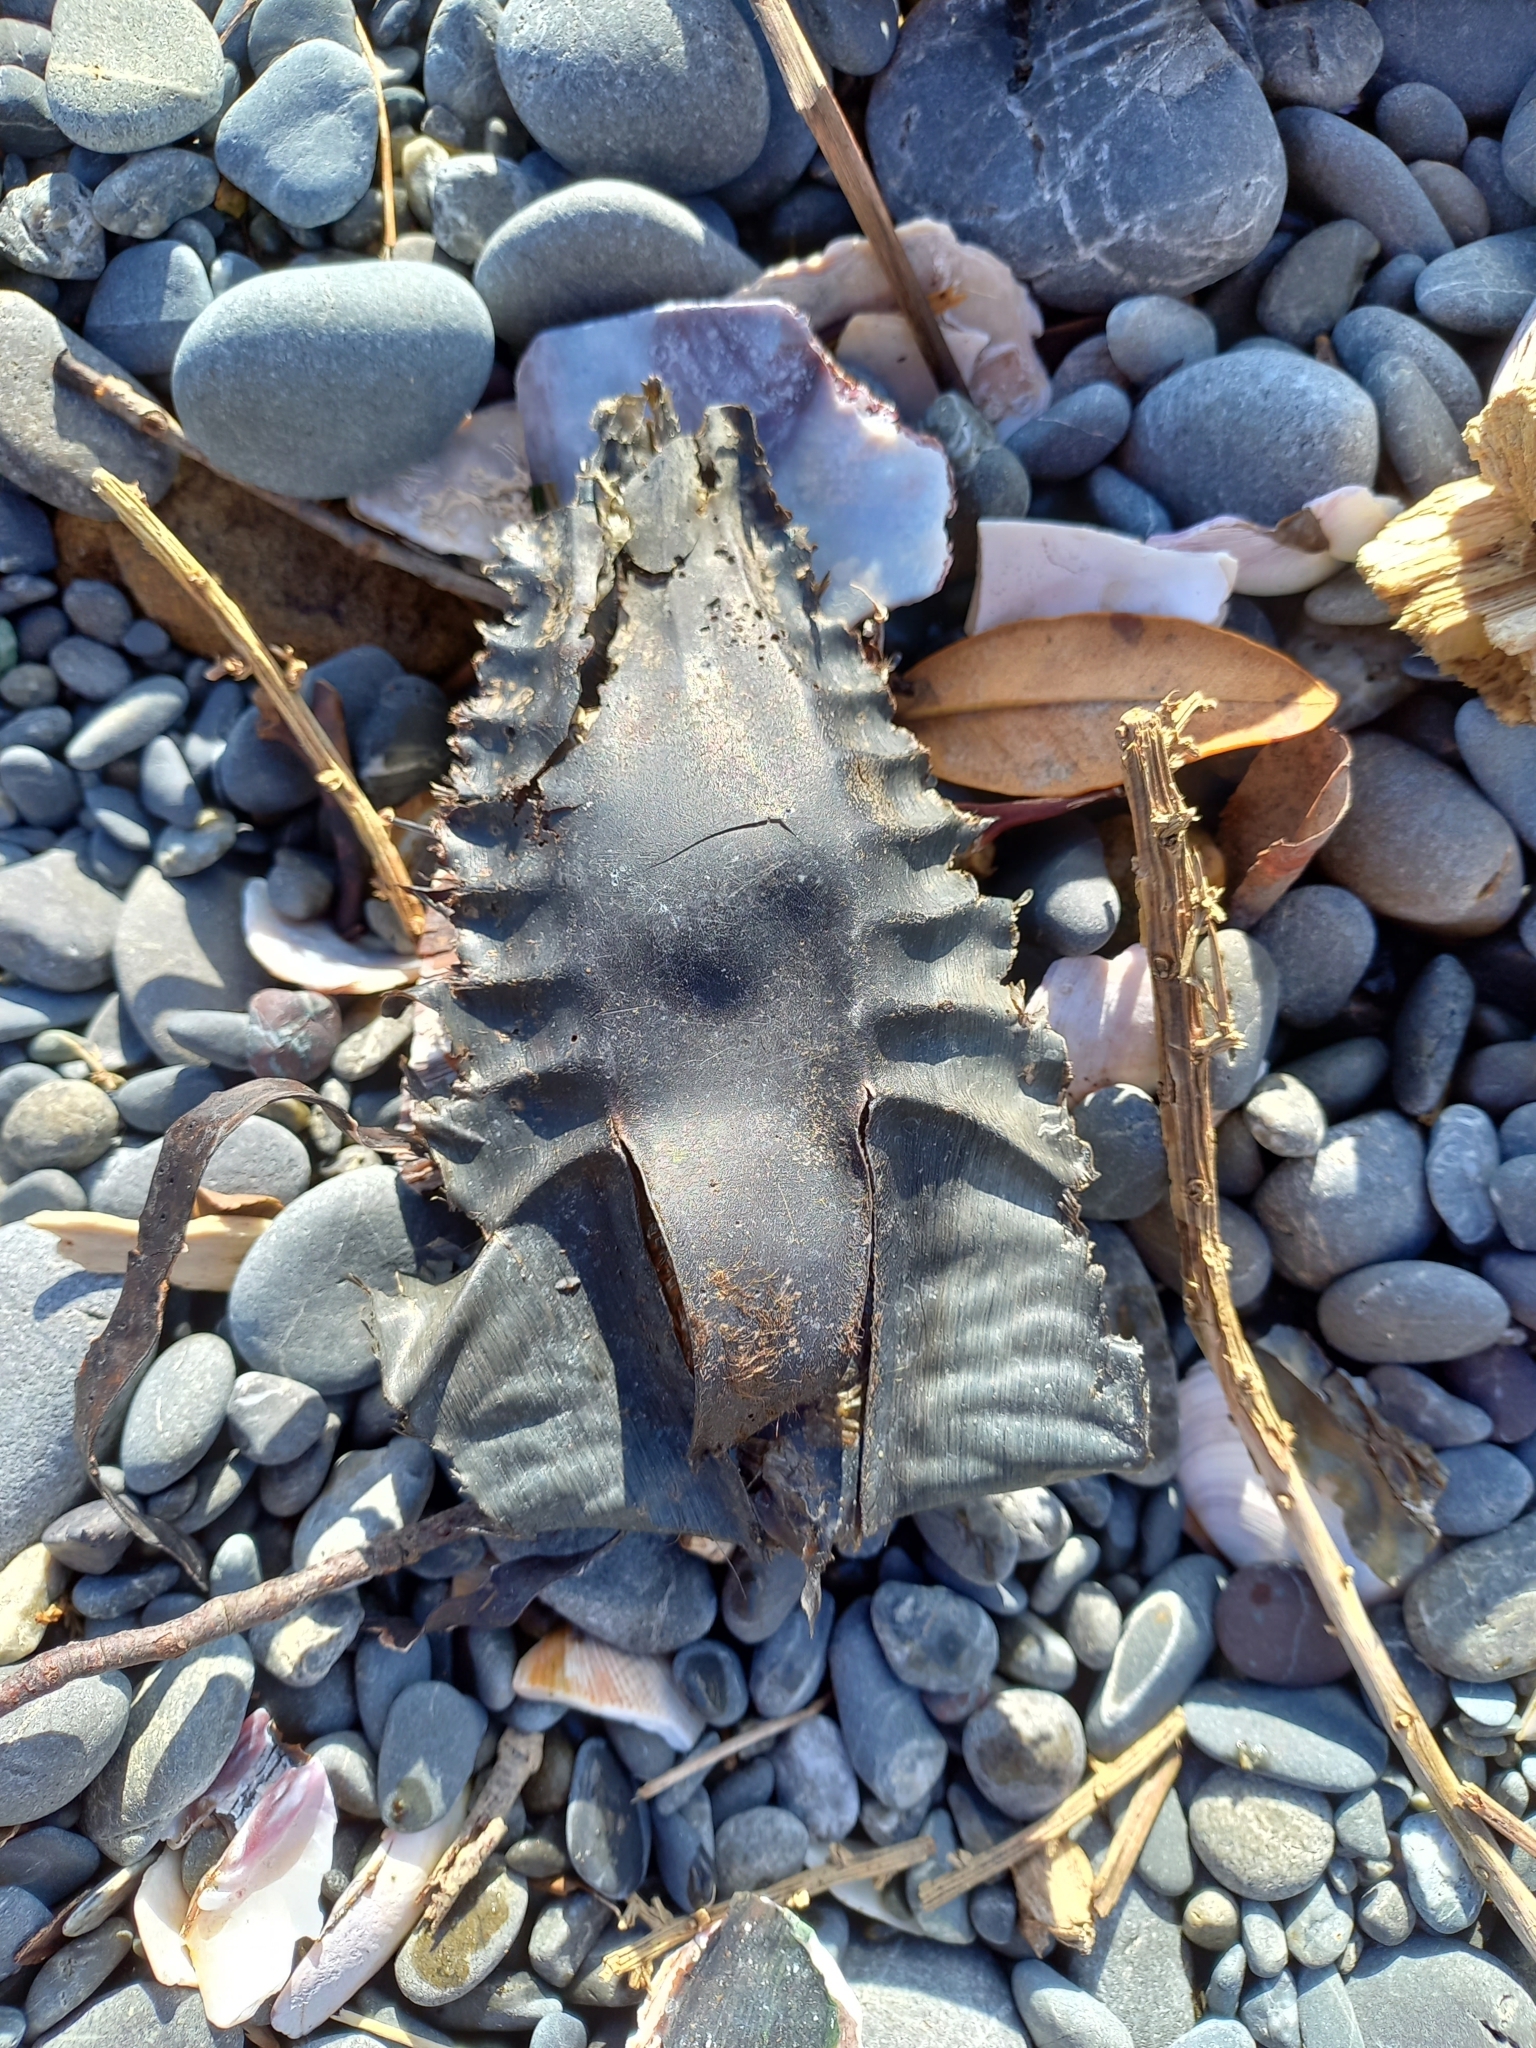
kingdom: Animalia
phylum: Chordata
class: Holocephali
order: Chimaeriformes
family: Callorhinchidae
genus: Callorhinchus
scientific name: Callorhinchus milii
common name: Elephant fish
